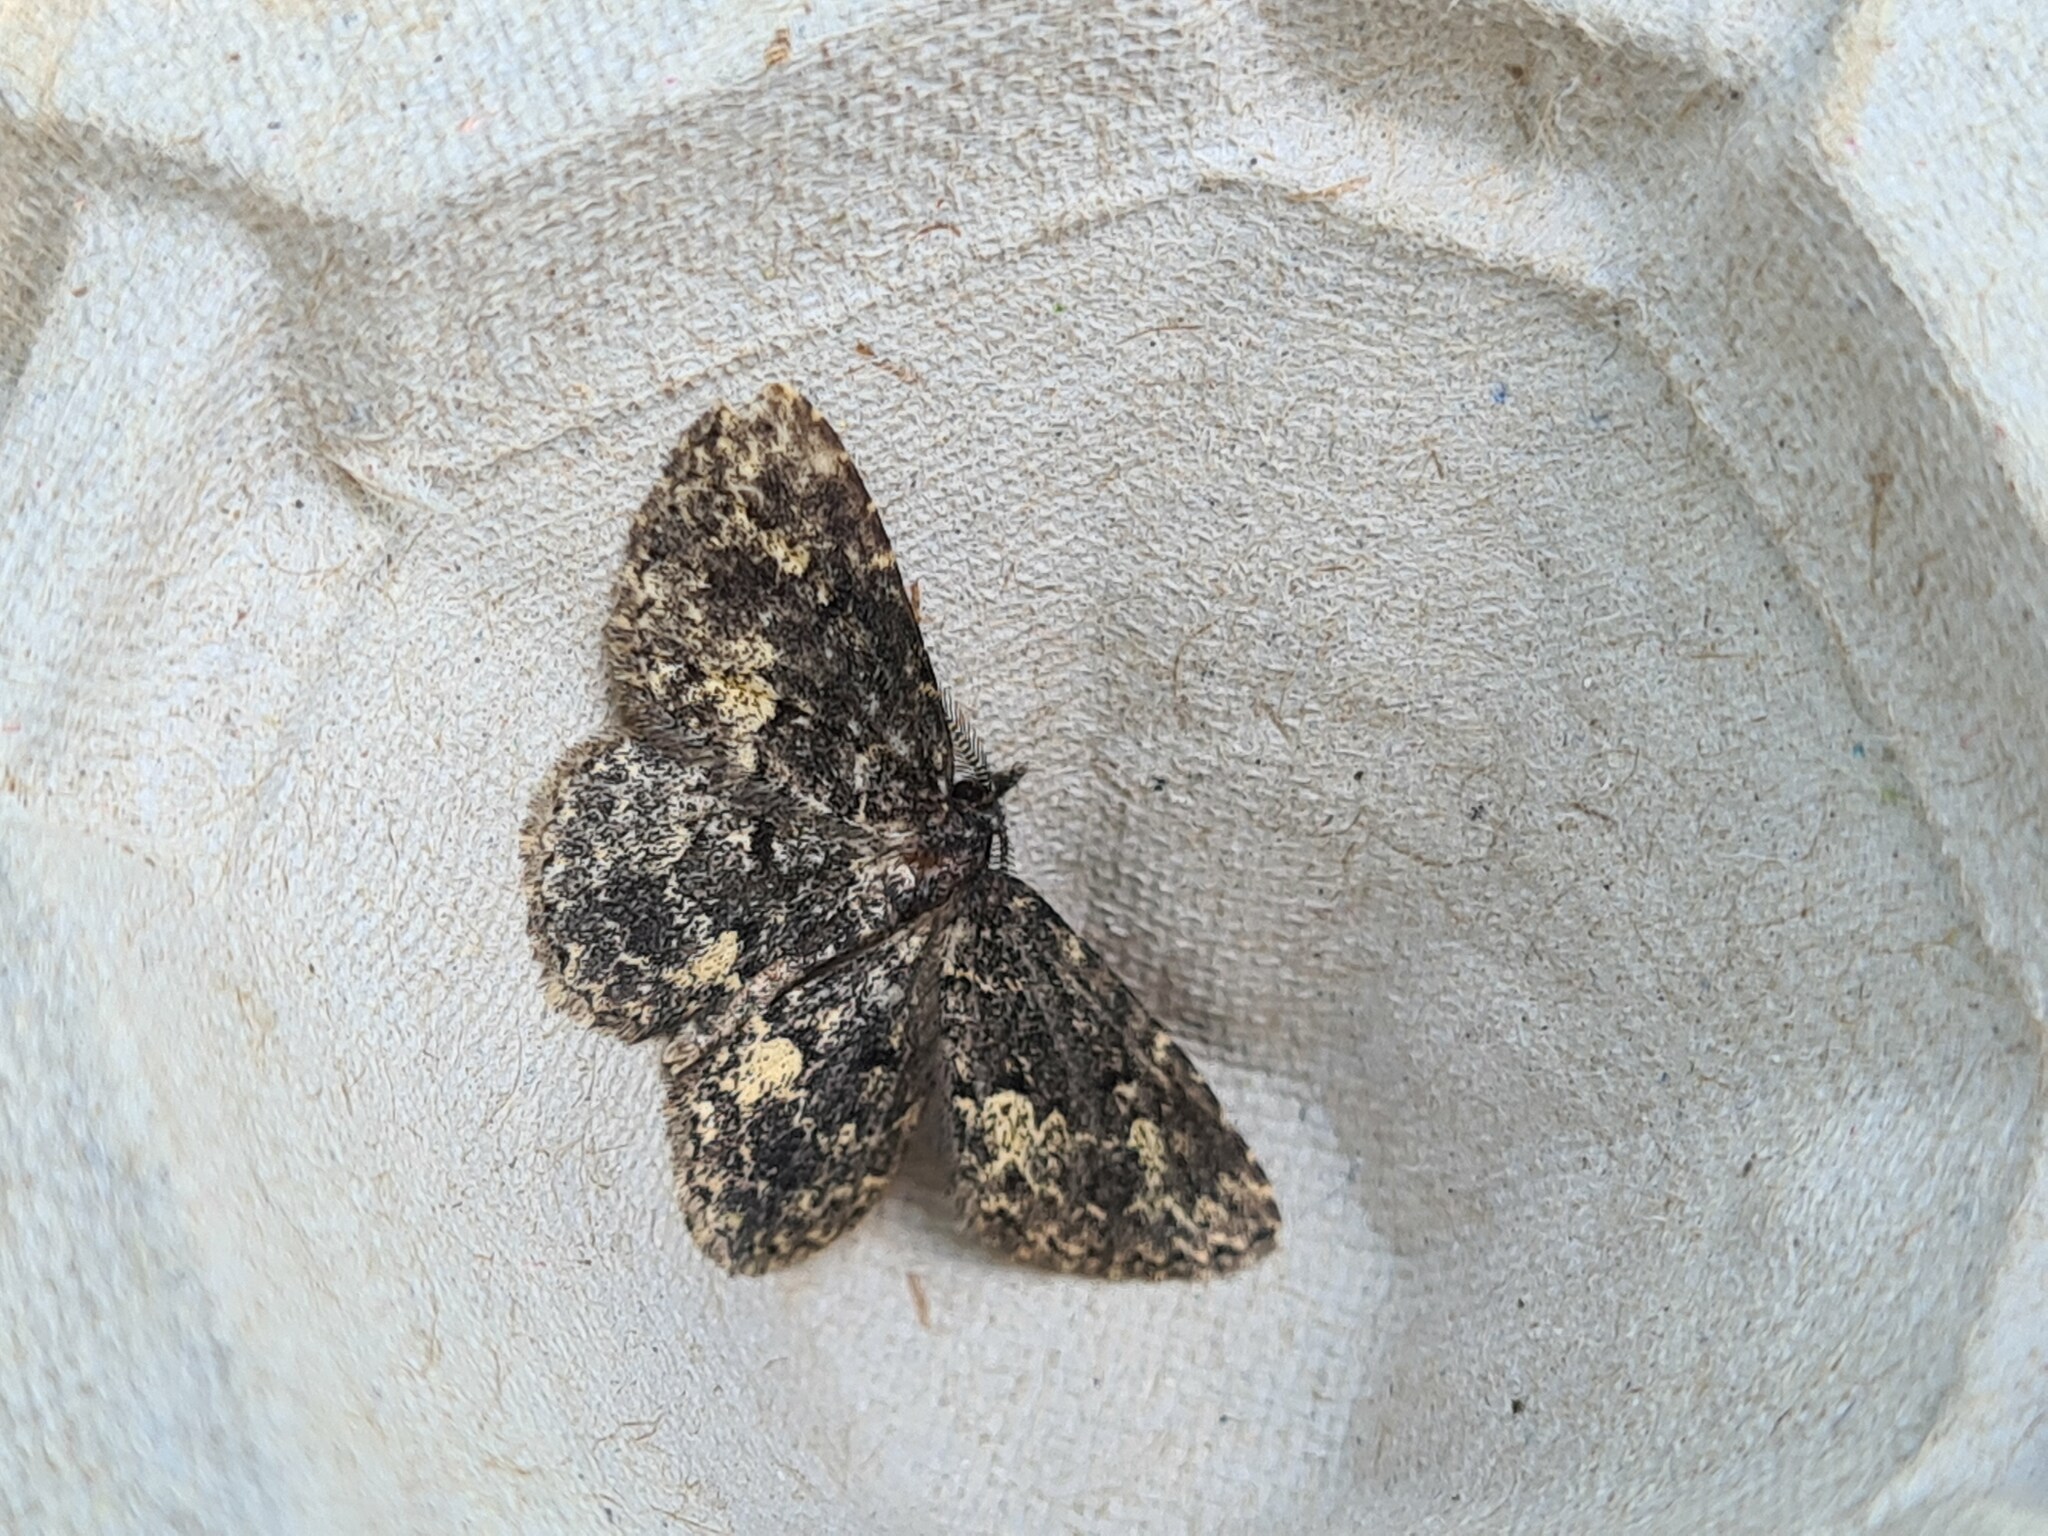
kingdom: Animalia
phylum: Arthropoda
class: Insecta
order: Lepidoptera
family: Erebidae
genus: Parascotia
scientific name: Parascotia fuliginaria
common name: Waved black
